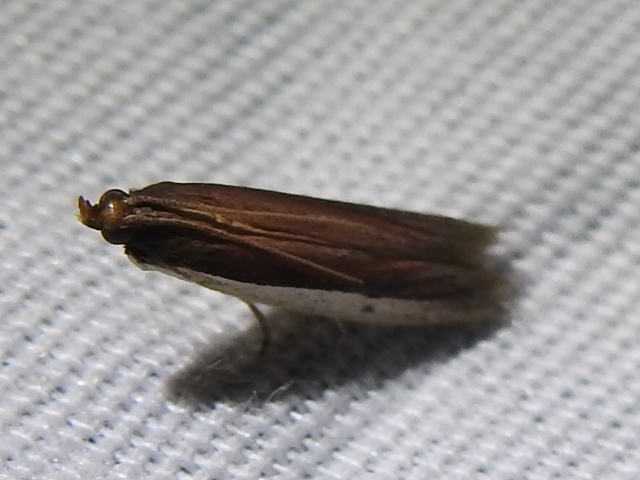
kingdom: Animalia
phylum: Arthropoda
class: Insecta
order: Lepidoptera
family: Pyralidae
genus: Tampa
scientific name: Tampa dimediatella
